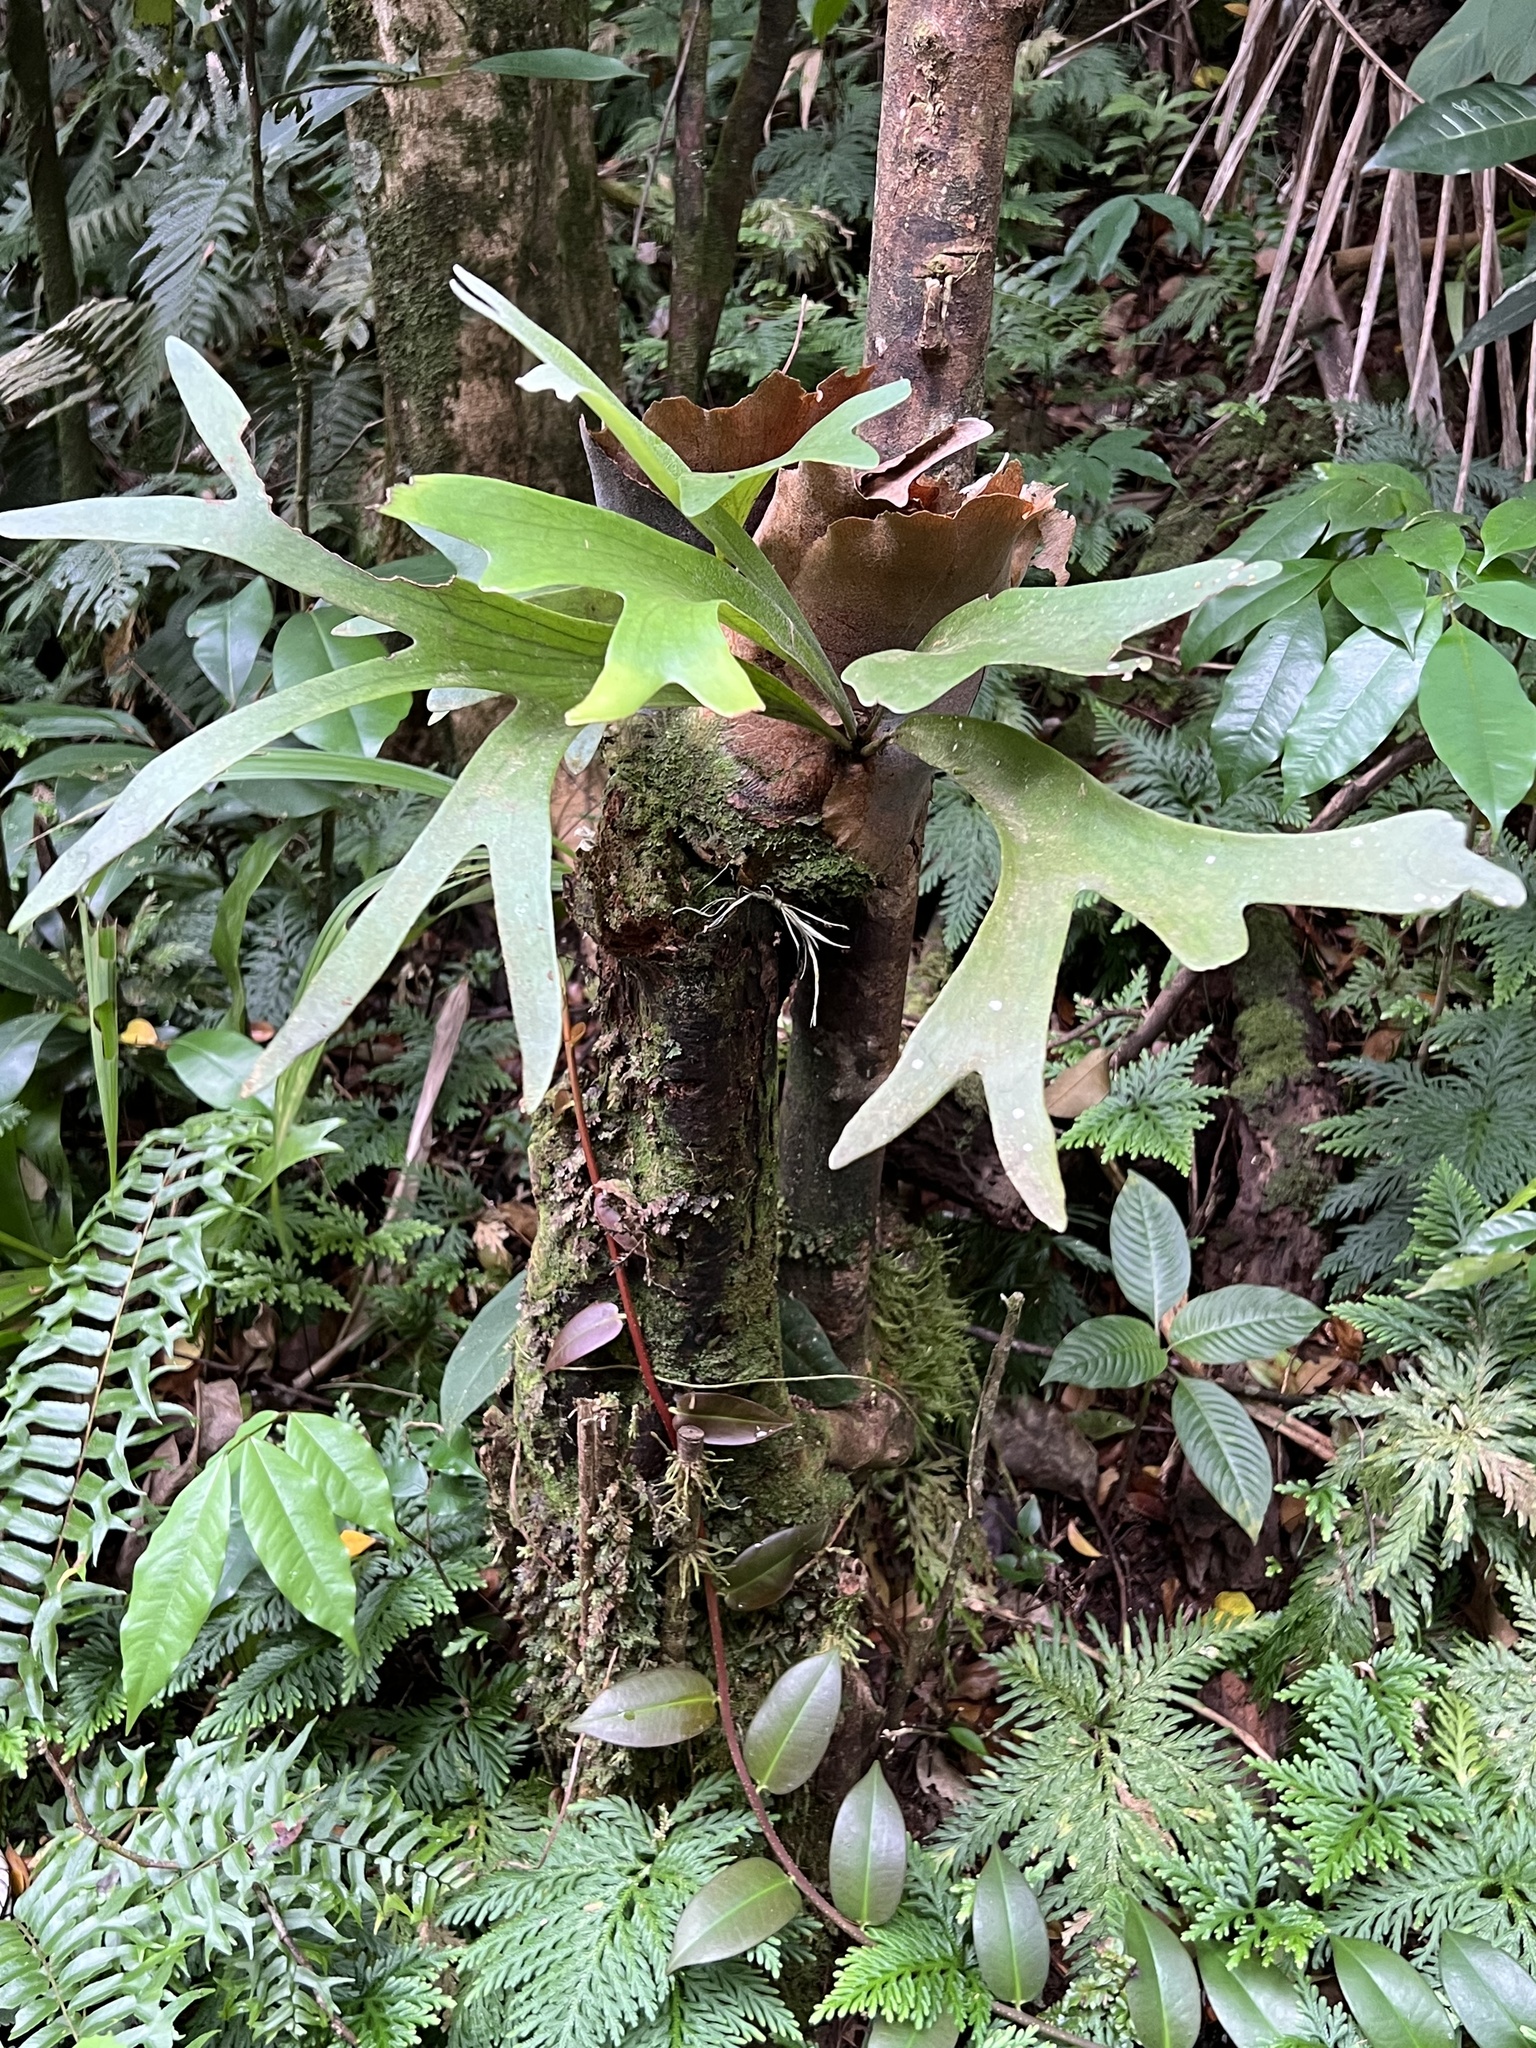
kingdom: Plantae
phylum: Tracheophyta
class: Polypodiopsida
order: Polypodiales
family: Polypodiaceae
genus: Platycerium
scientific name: Platycerium bifurcatum
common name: Elkhorn fern
